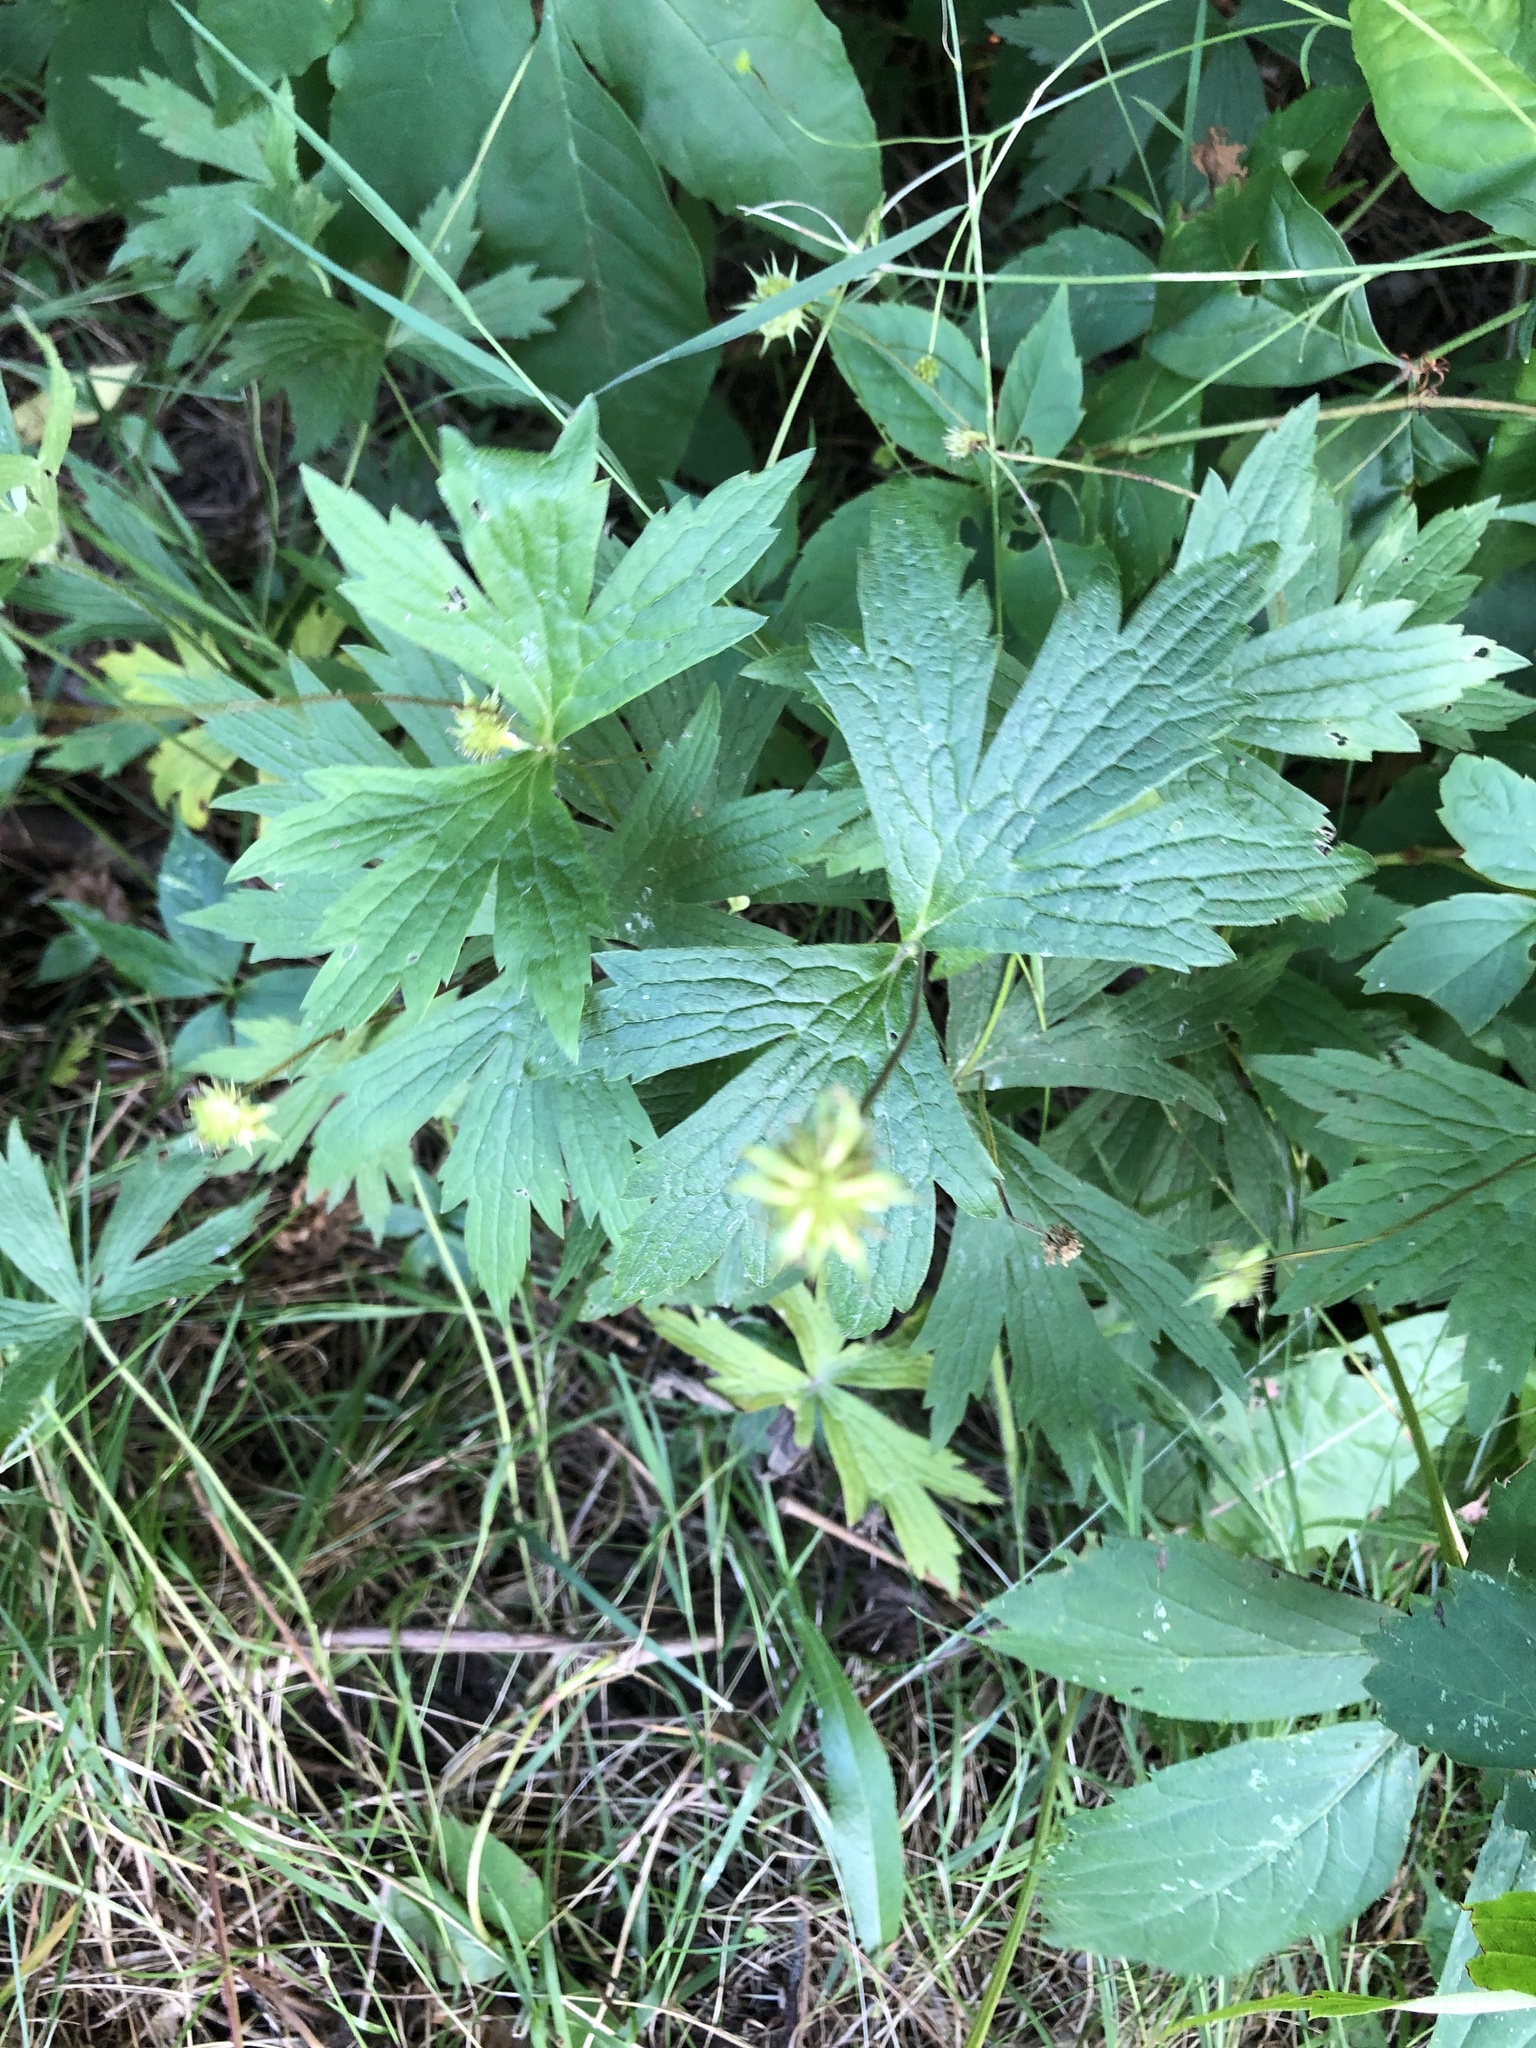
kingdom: Plantae
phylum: Tracheophyta
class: Magnoliopsida
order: Ranunculales
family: Ranunculaceae
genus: Anemonastrum
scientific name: Anemonastrum canadense
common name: Canada anemone
